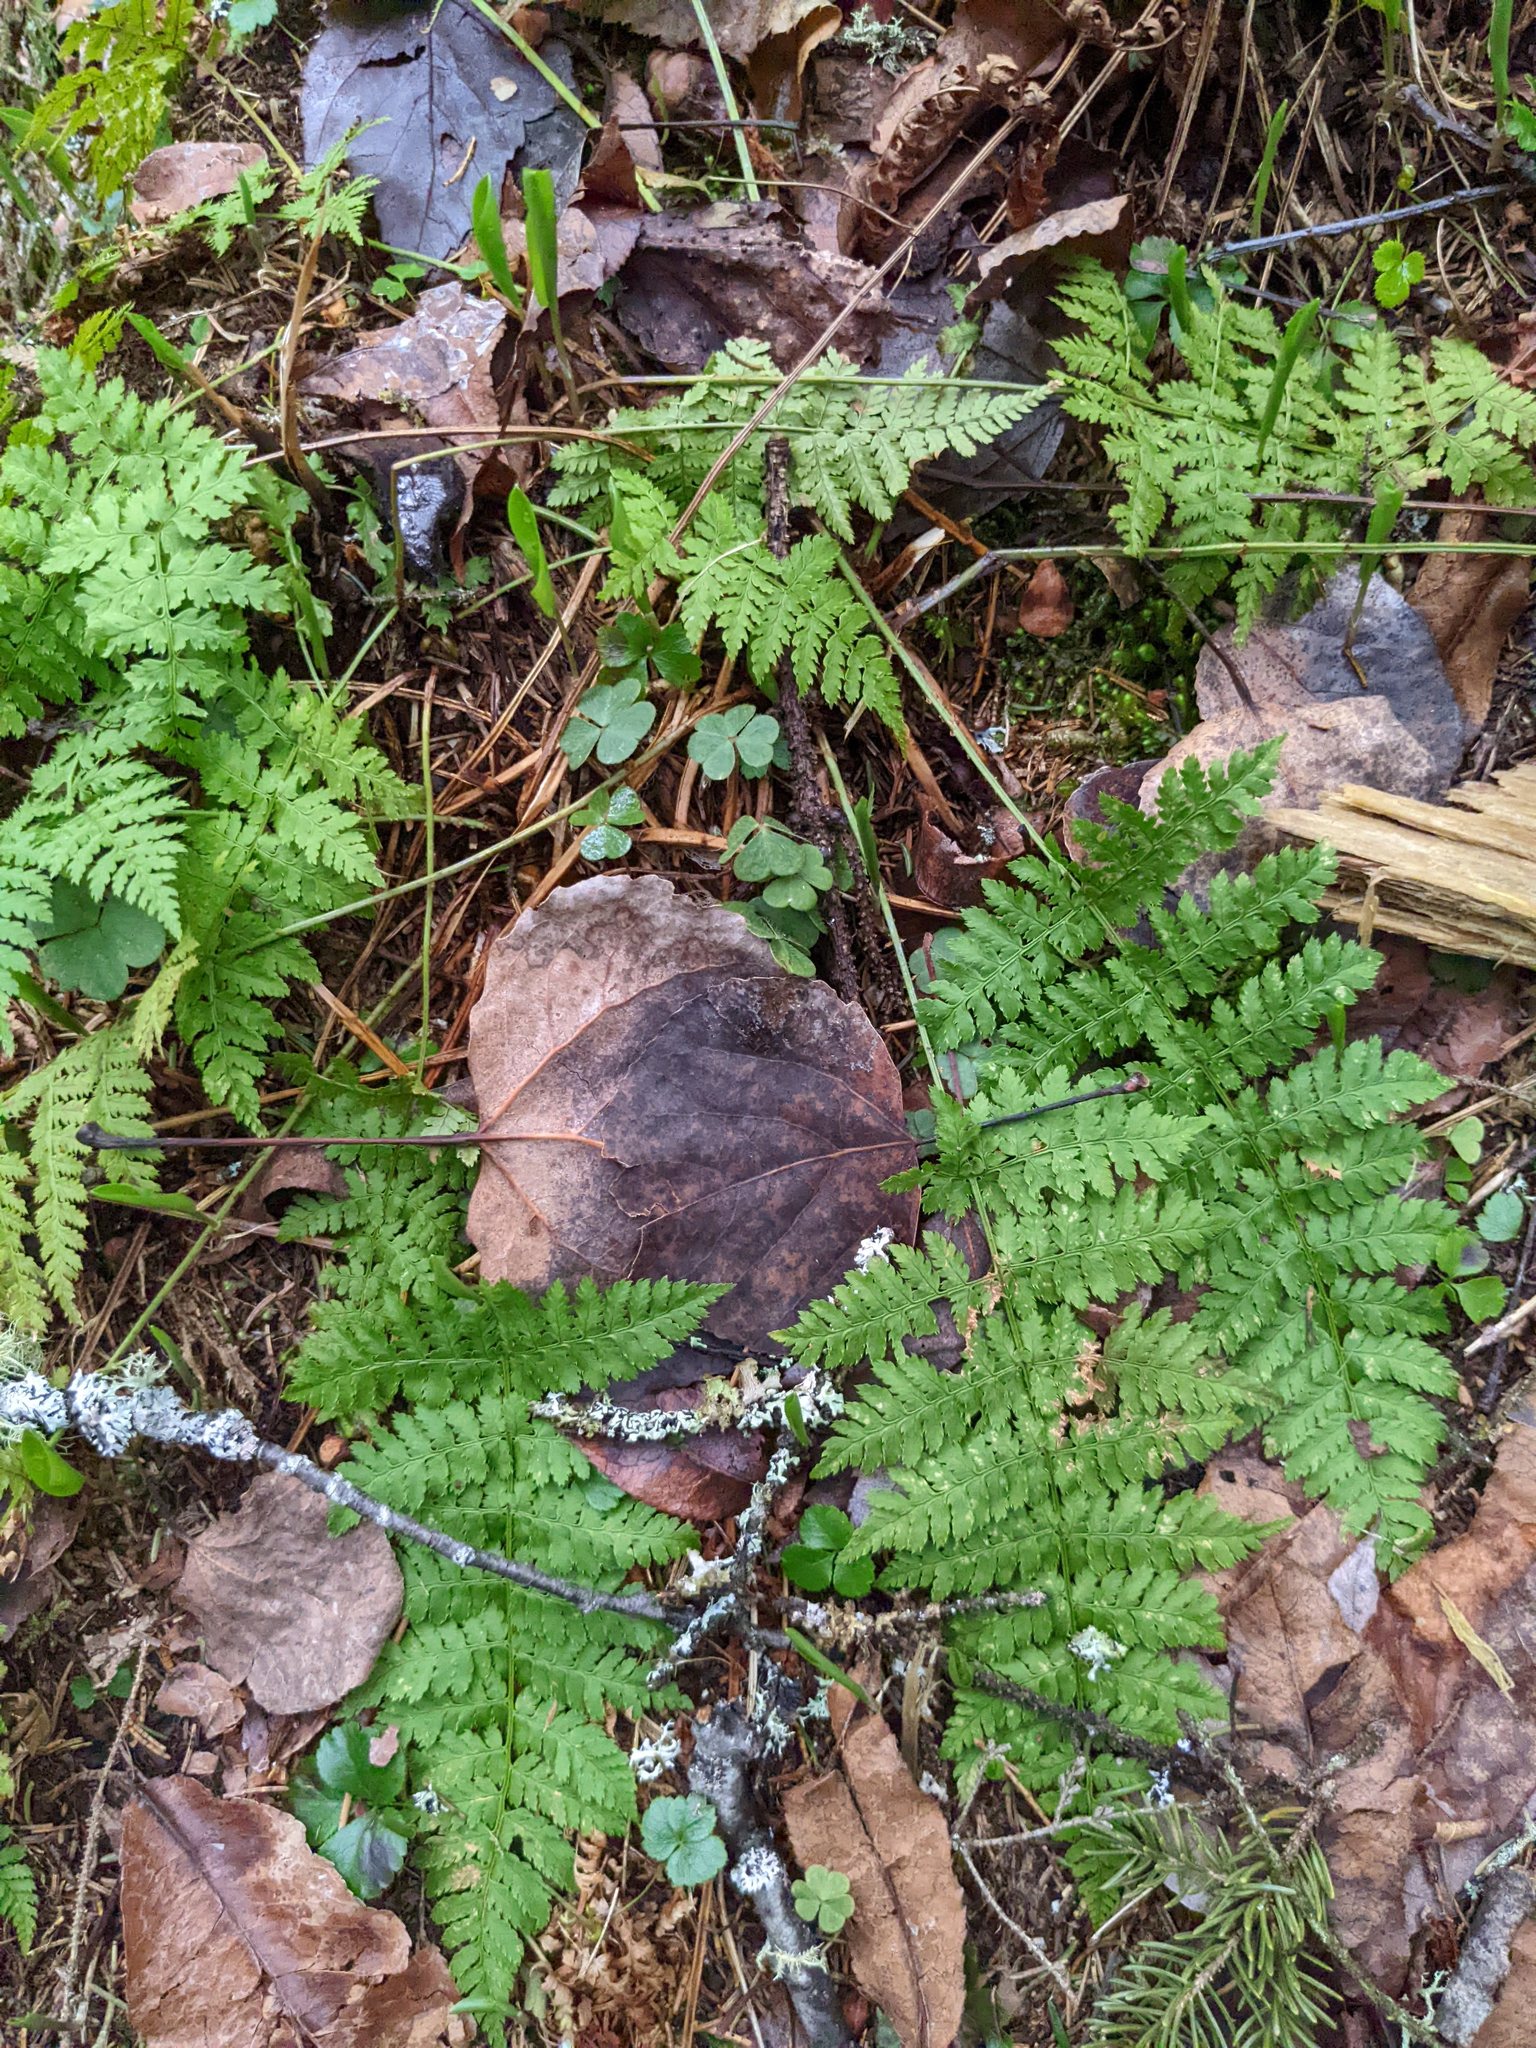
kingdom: Plantae
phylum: Tracheophyta
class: Magnoliopsida
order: Malpighiales
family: Salicaceae
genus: Populus
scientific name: Populus tremuloides
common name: Quaking aspen
